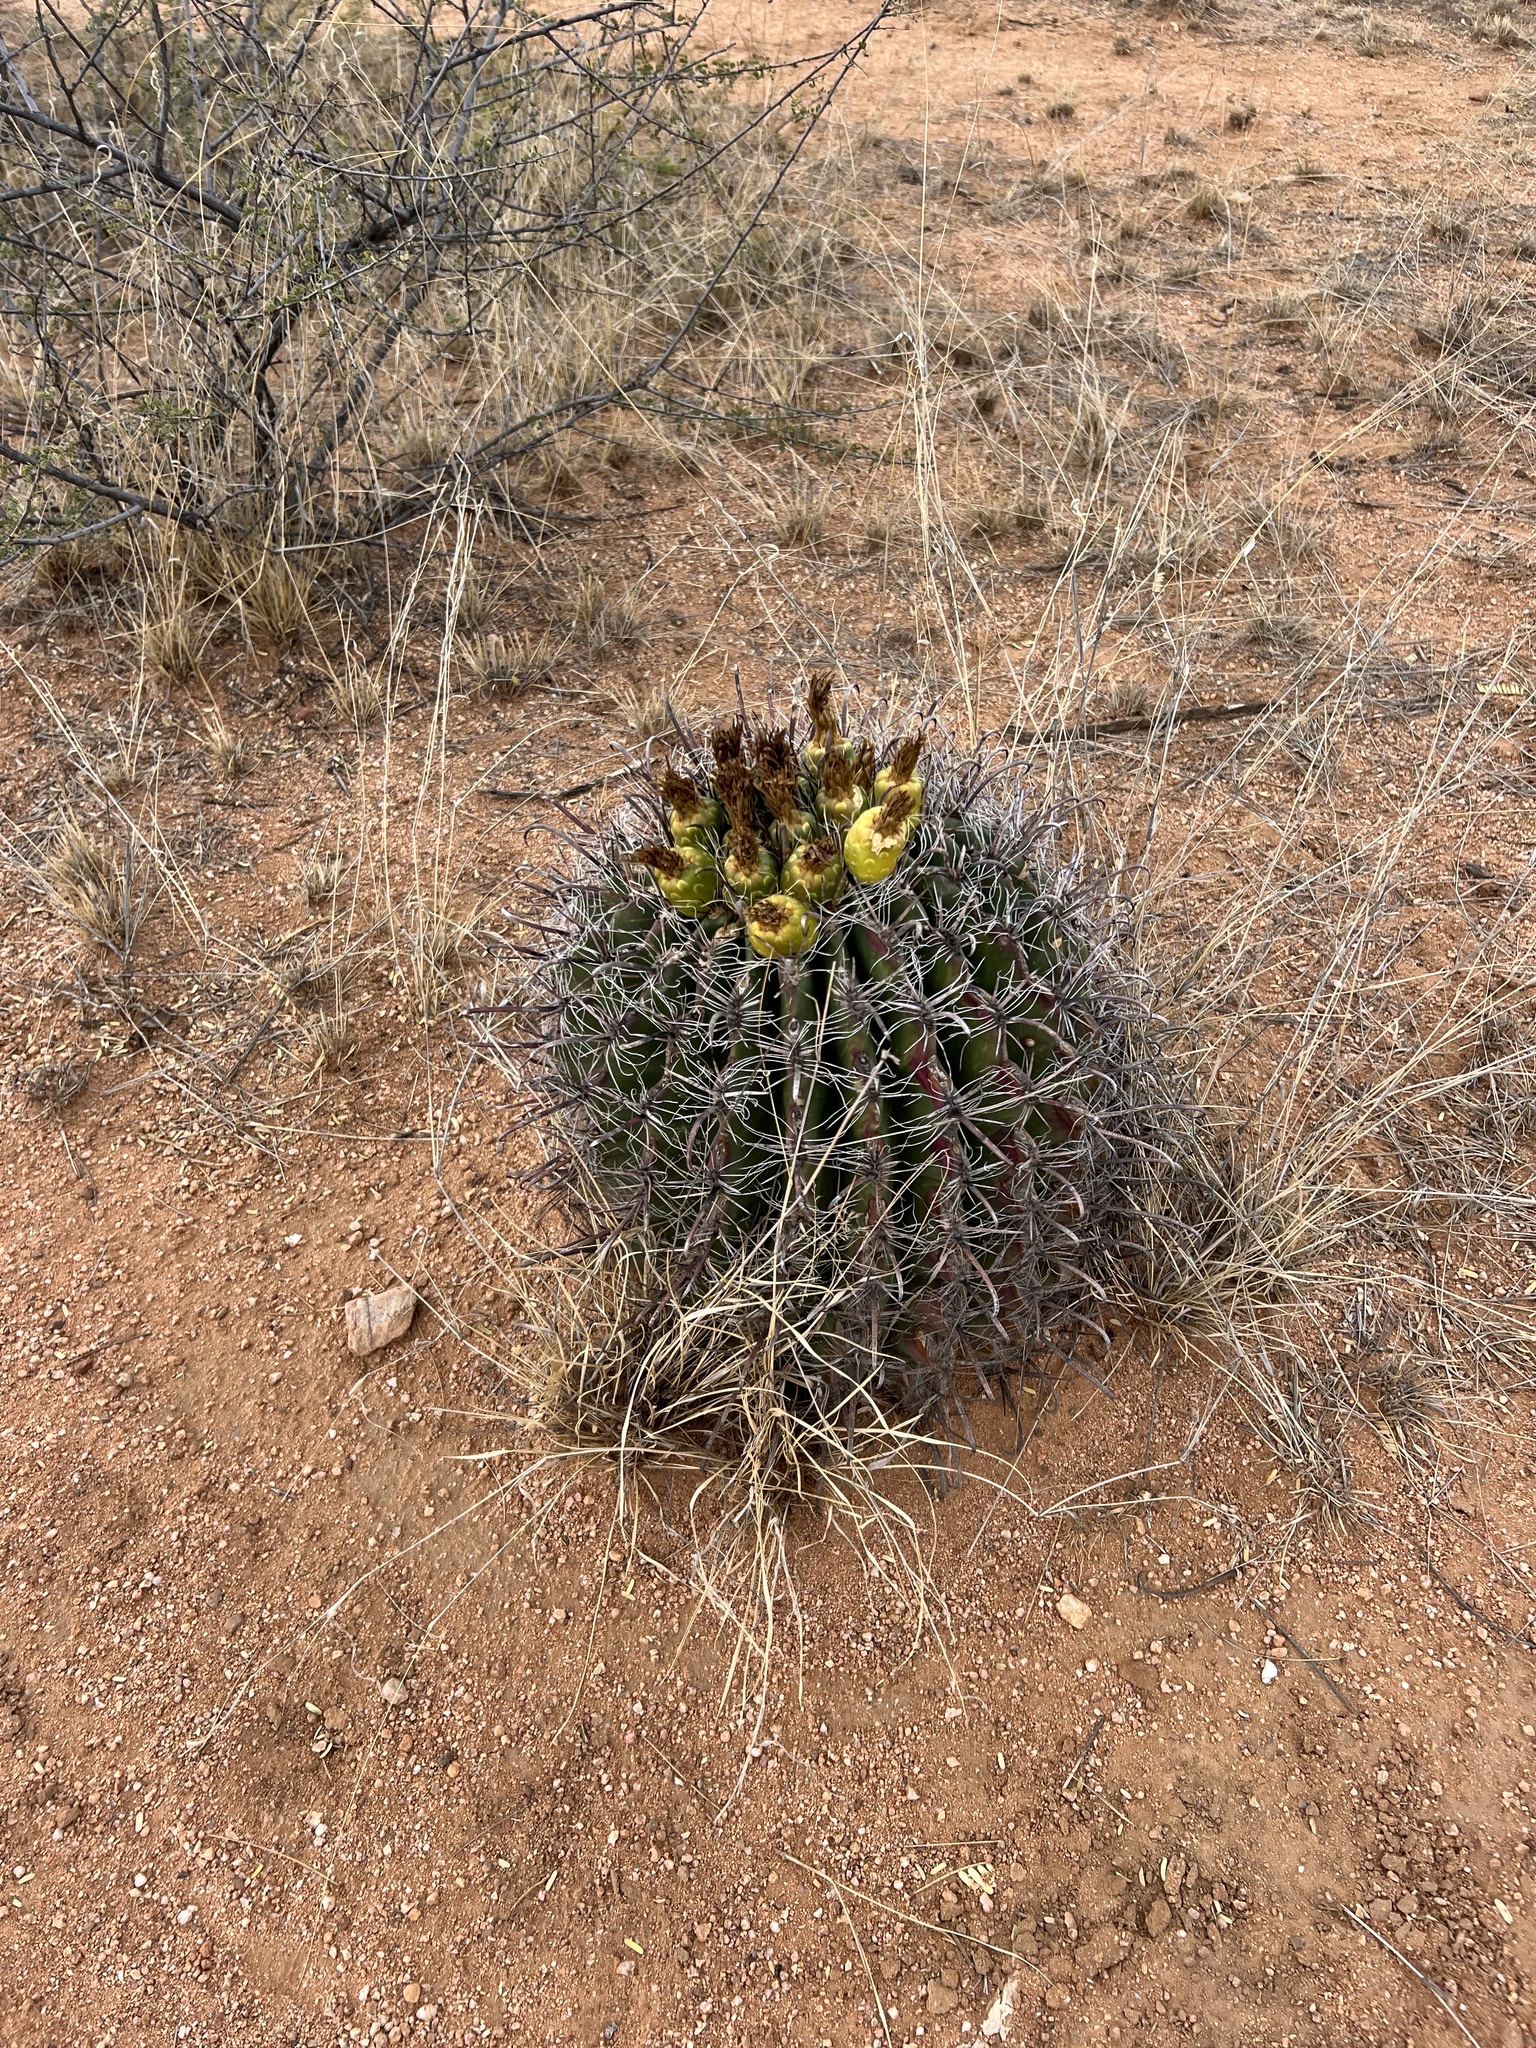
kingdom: Plantae
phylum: Tracheophyta
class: Magnoliopsida
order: Caryophyllales
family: Cactaceae
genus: Ferocactus
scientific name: Ferocactus wislizeni
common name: Candy barrel cactus
